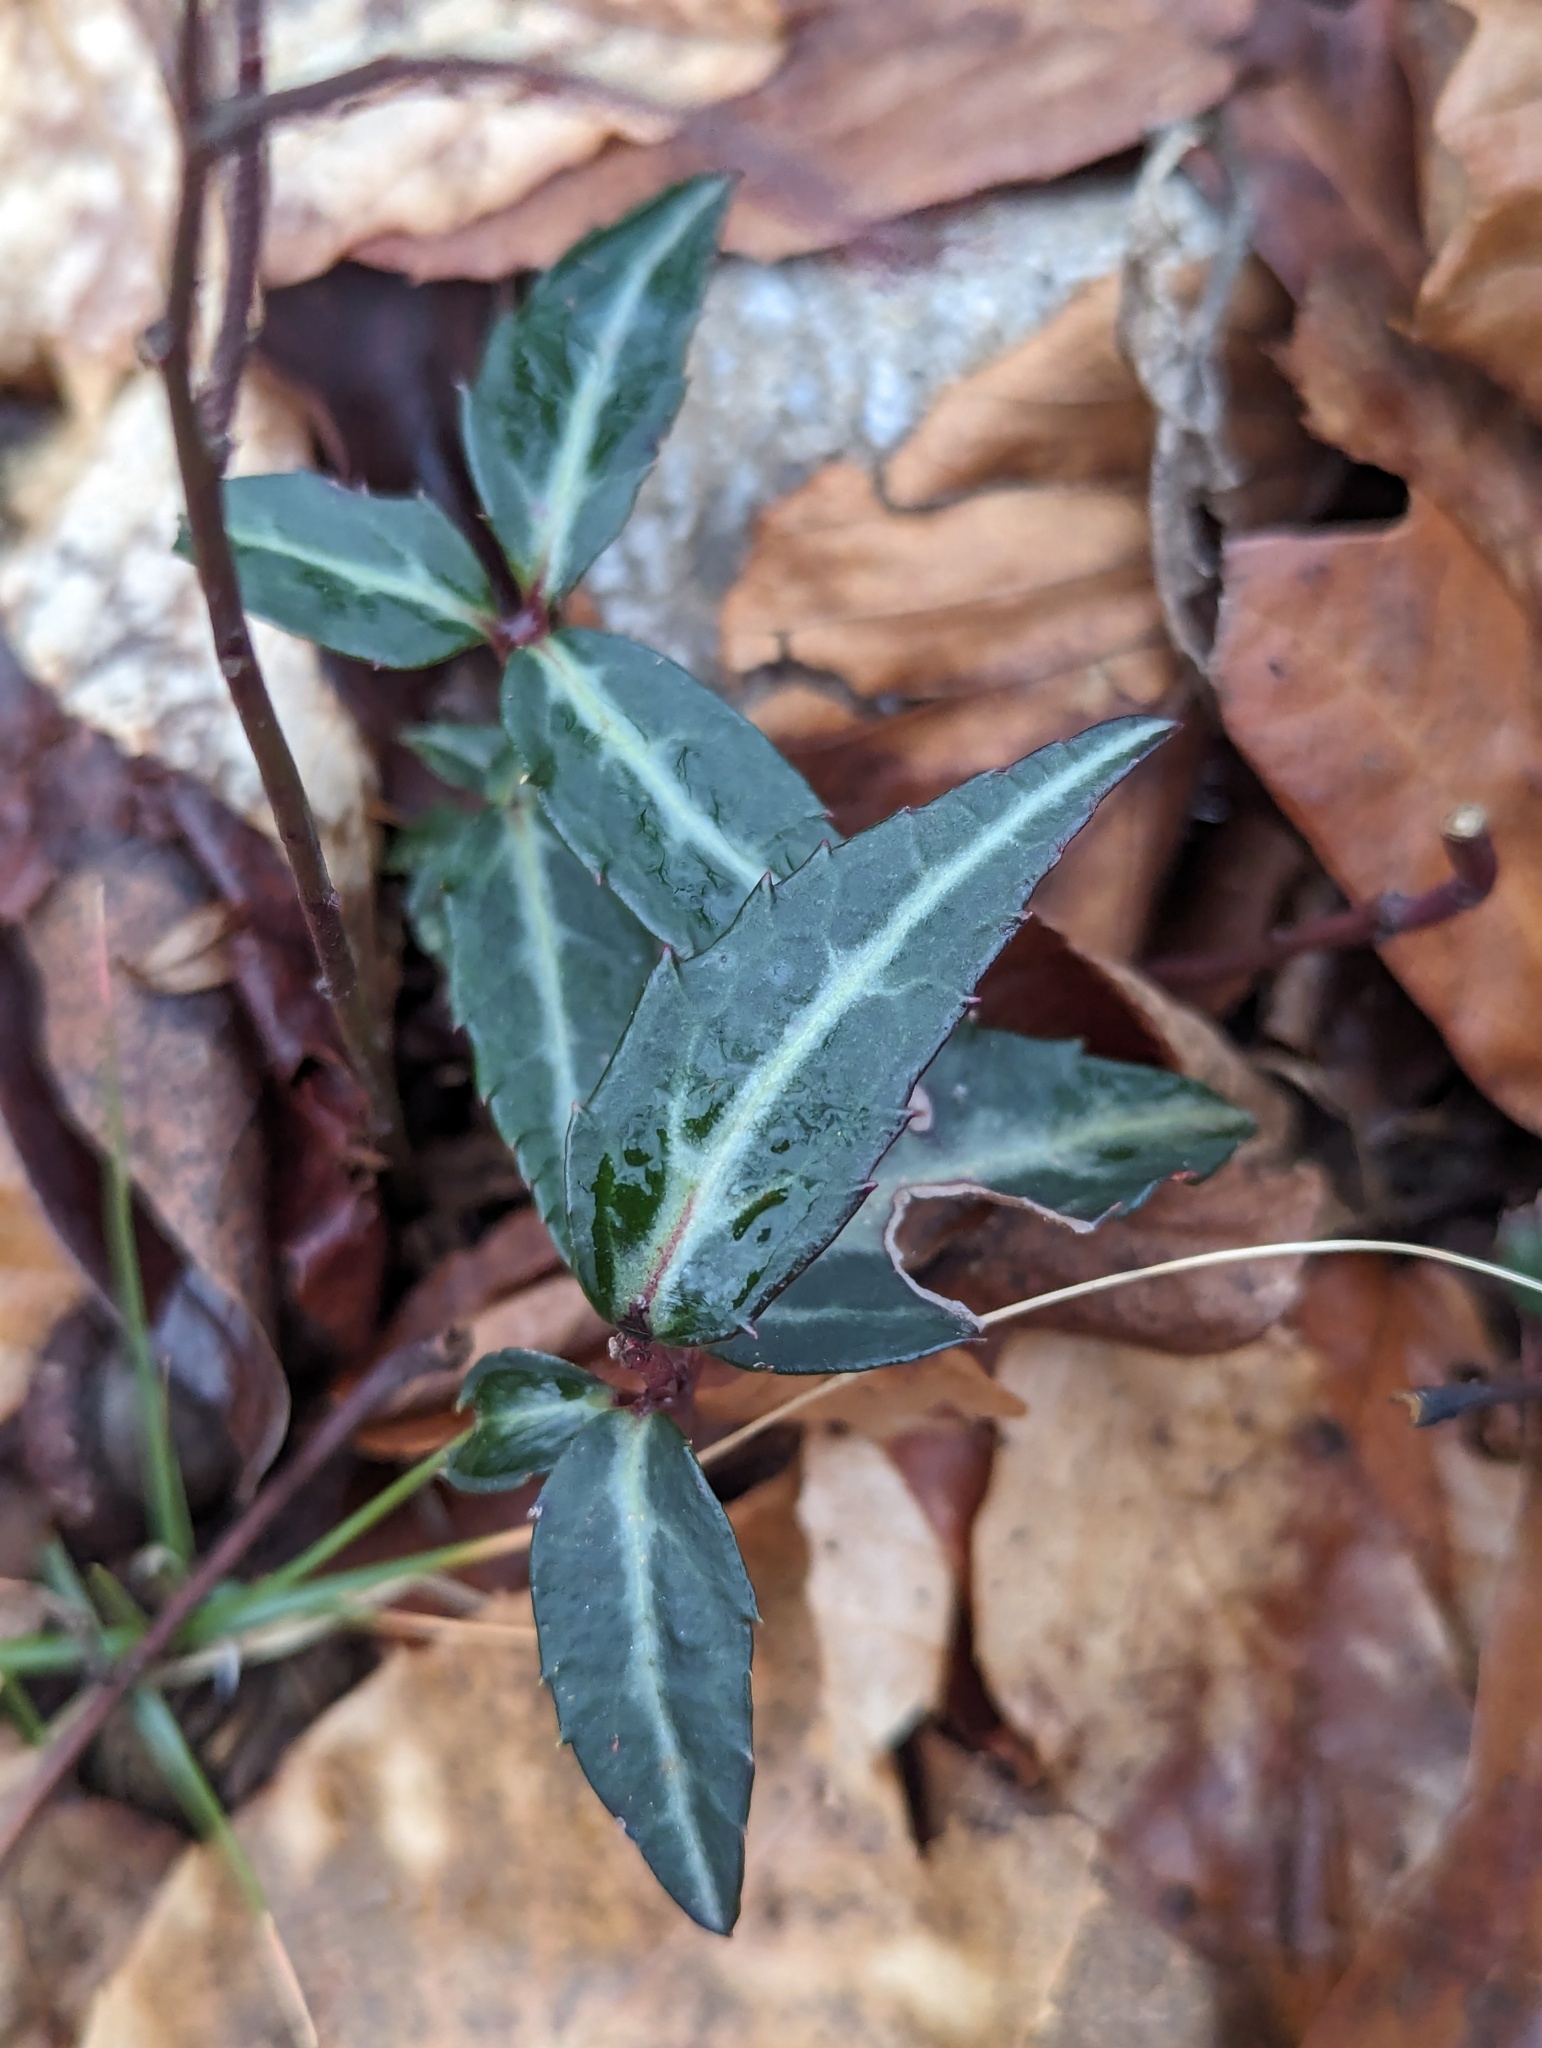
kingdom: Plantae
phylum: Tracheophyta
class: Magnoliopsida
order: Ericales
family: Ericaceae
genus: Chimaphila
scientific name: Chimaphila maculata
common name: Spotted pipsissewa
